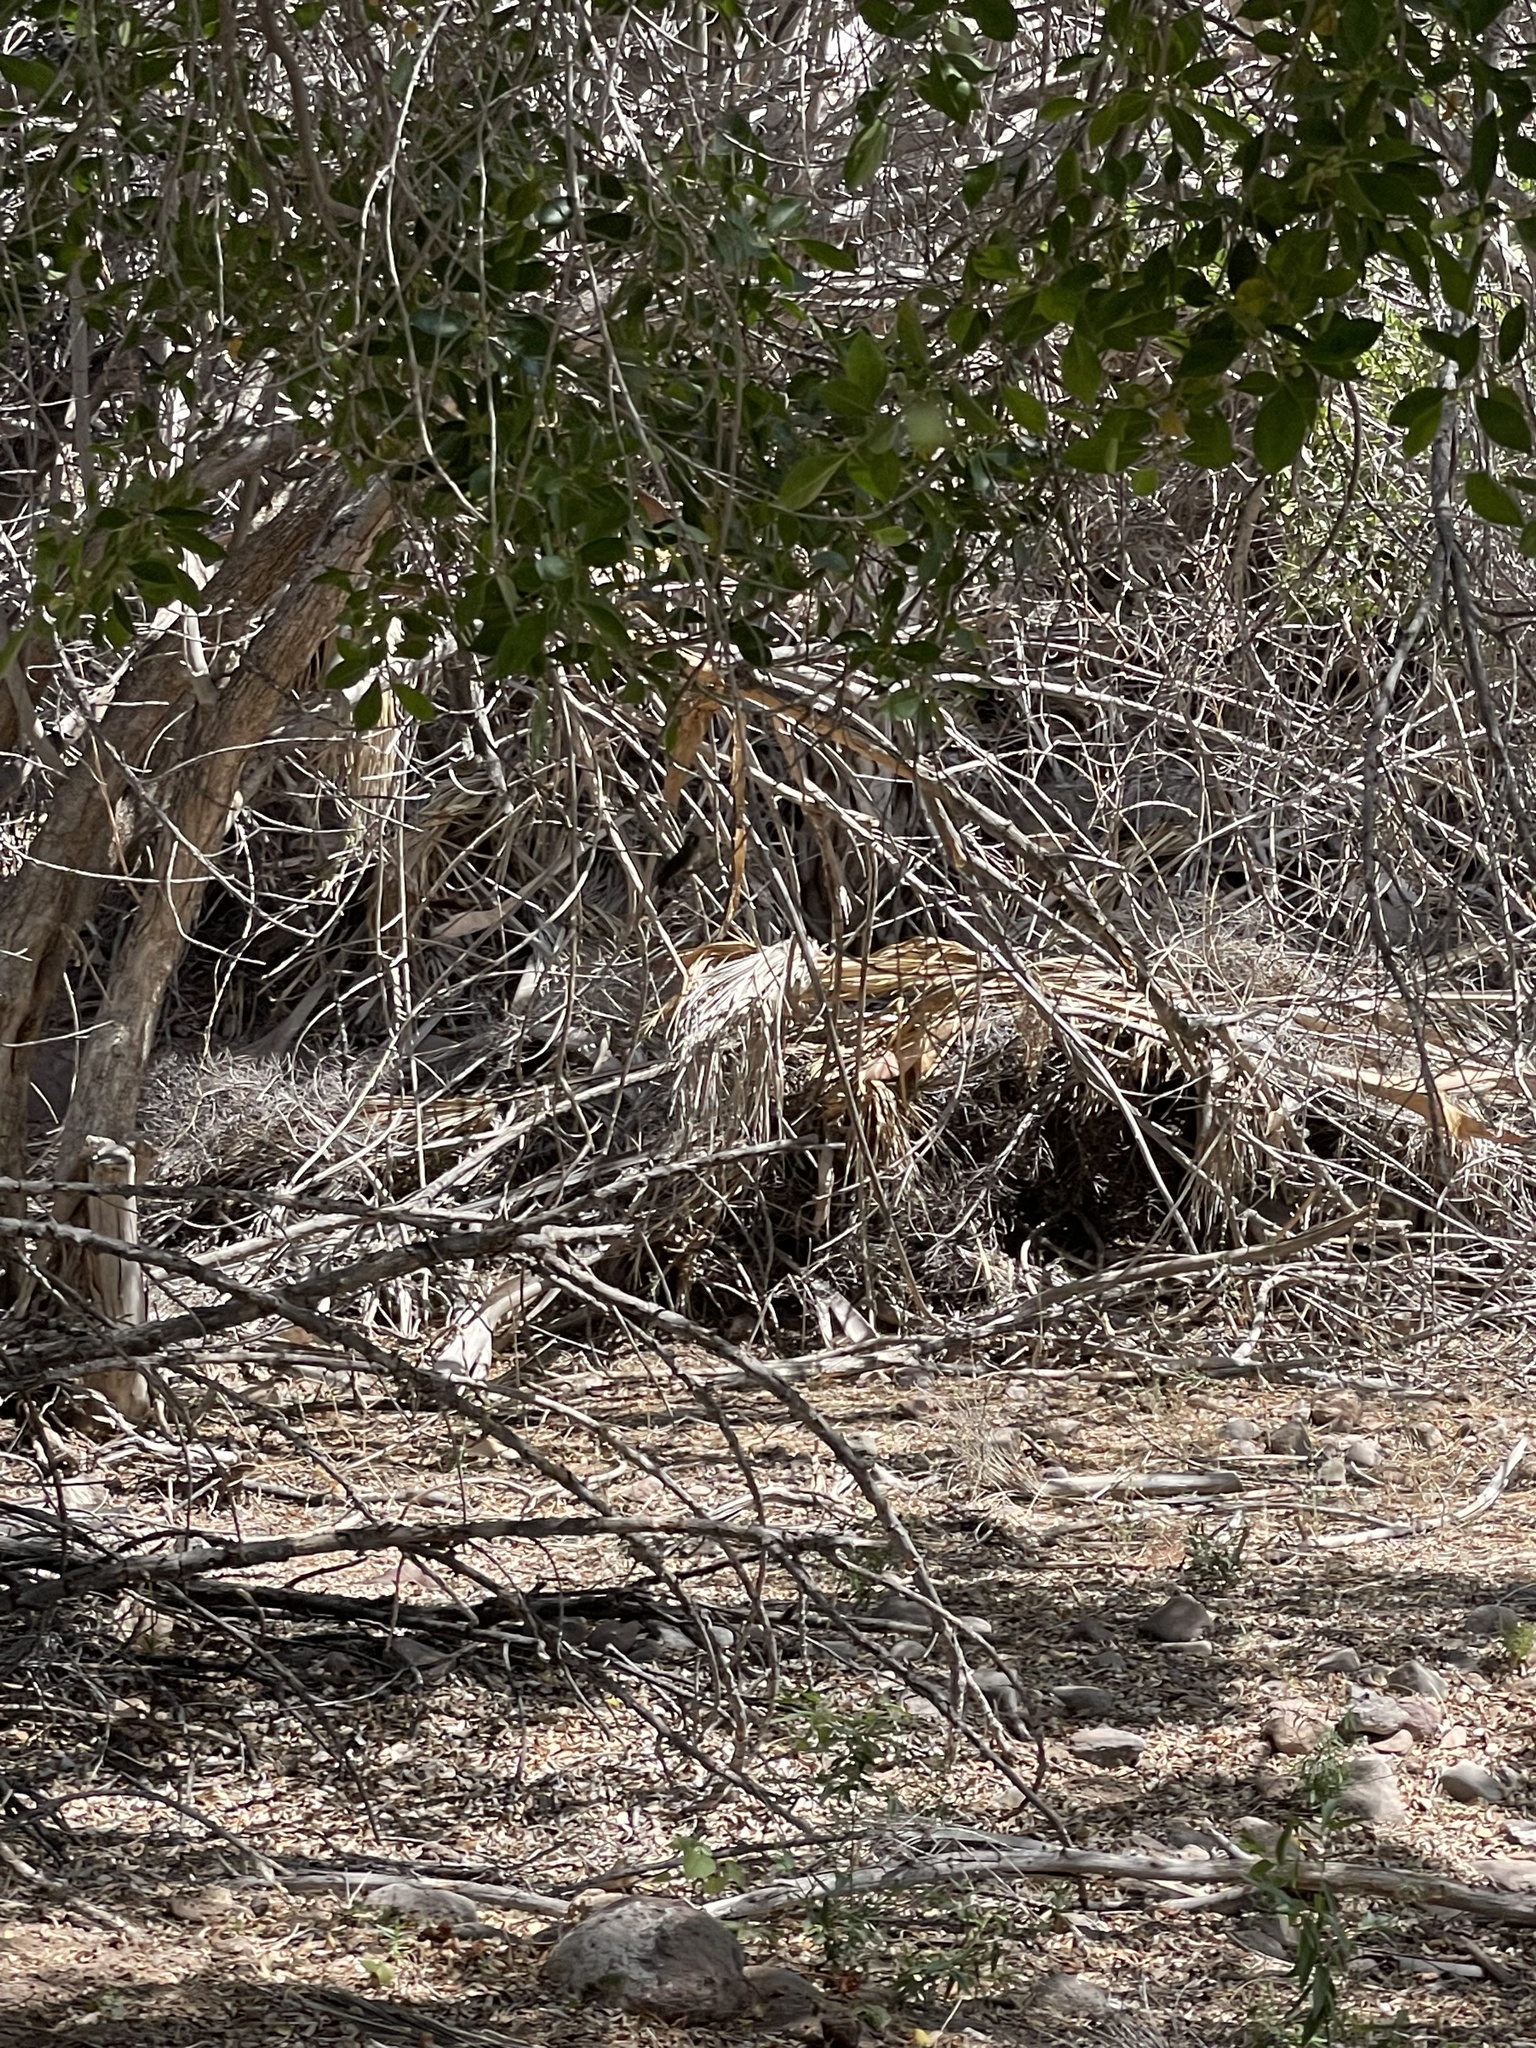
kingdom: Animalia
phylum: Chordata
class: Aves
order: Apodiformes
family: Trochilidae
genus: Basilinna
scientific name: Basilinna xantusii
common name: Xantus's hummingbird
